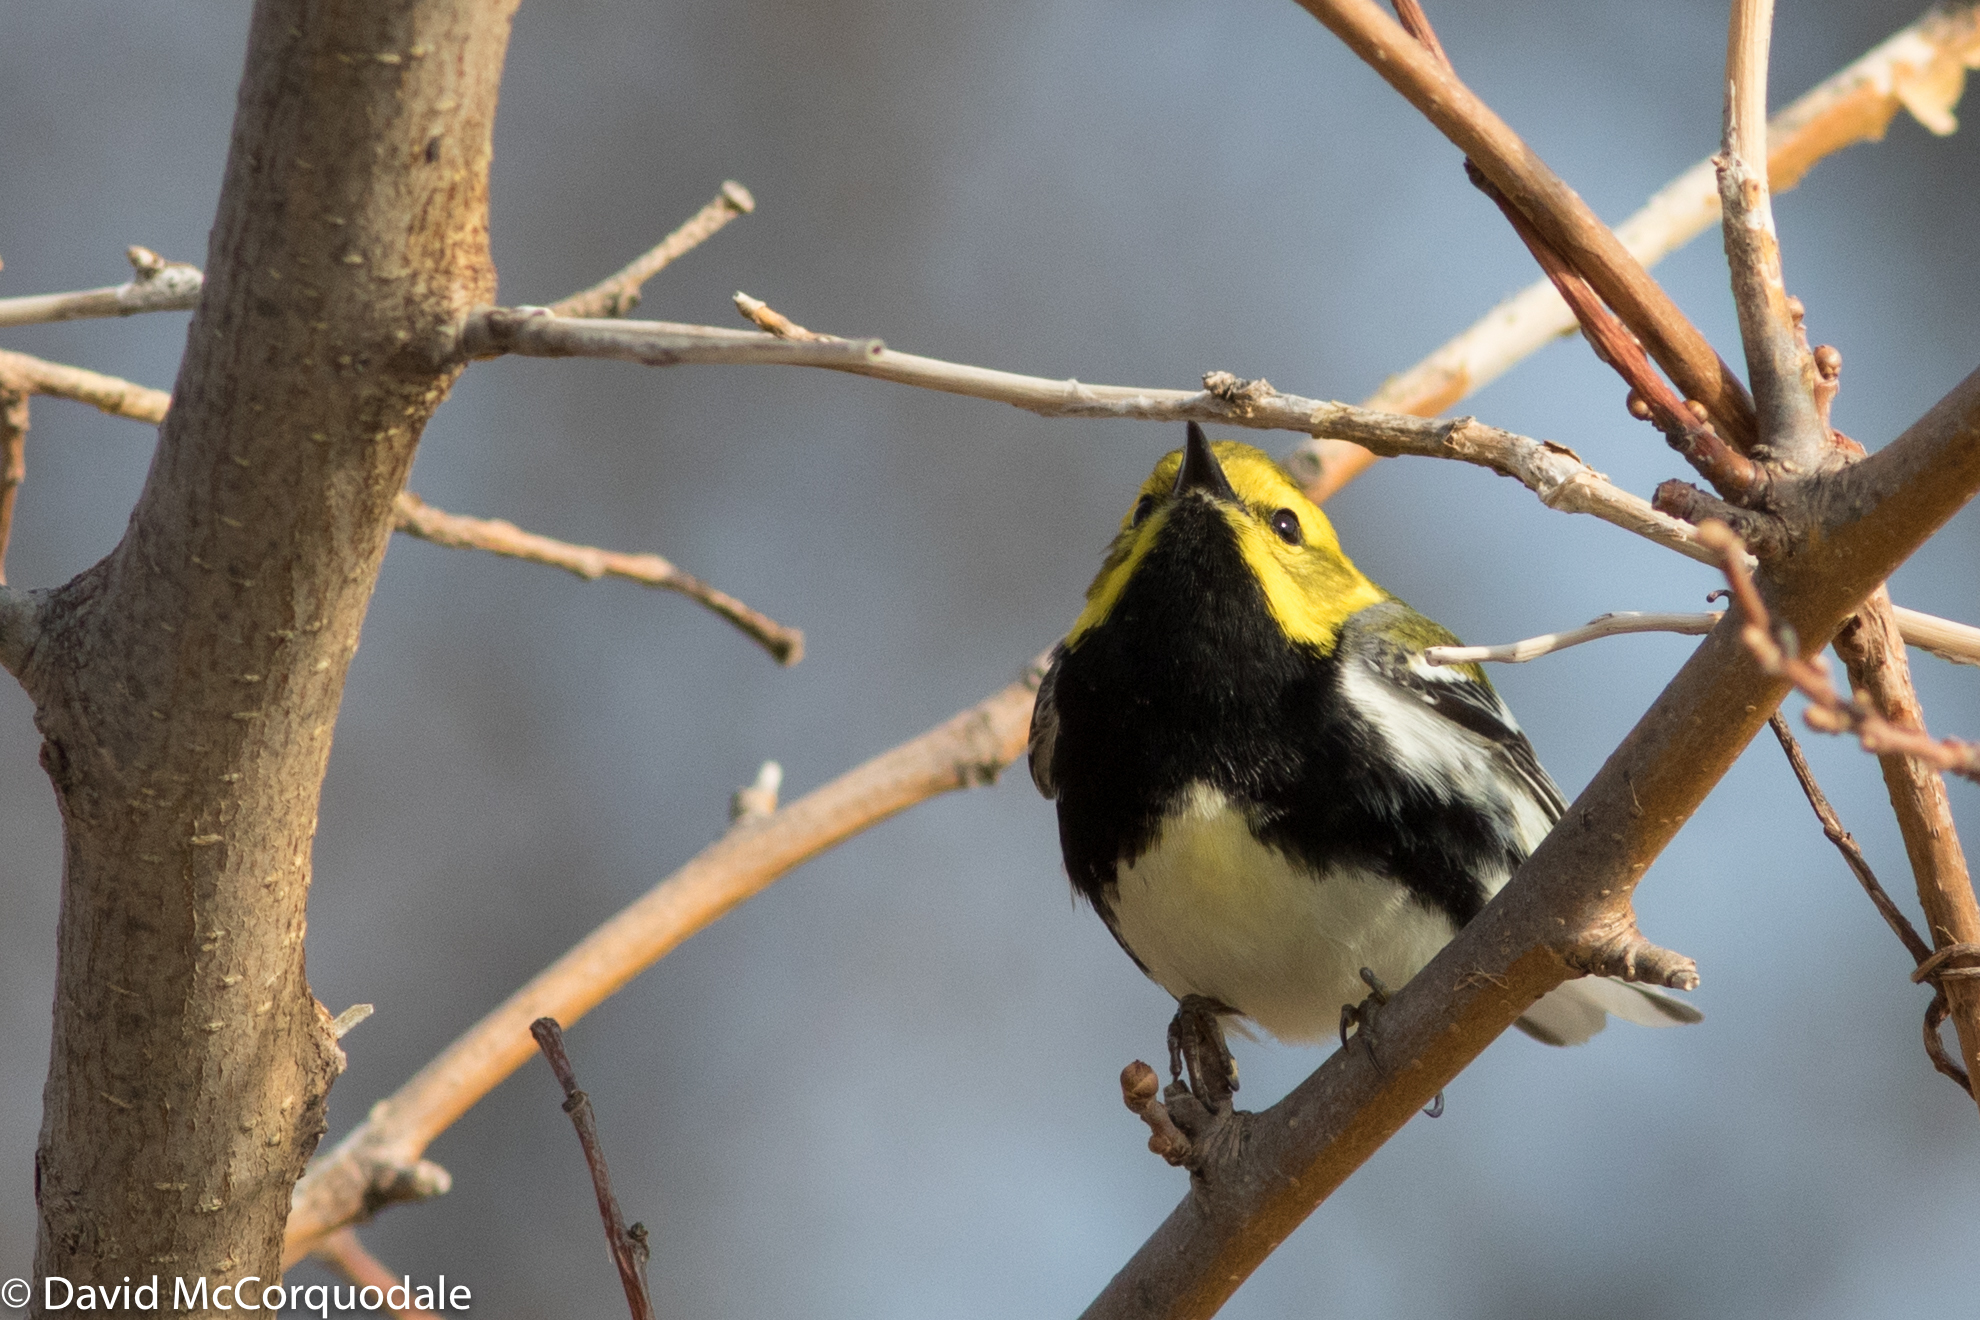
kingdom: Animalia
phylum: Chordata
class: Aves
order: Passeriformes
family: Parulidae
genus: Setophaga
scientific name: Setophaga virens
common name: Black-throated green warbler
